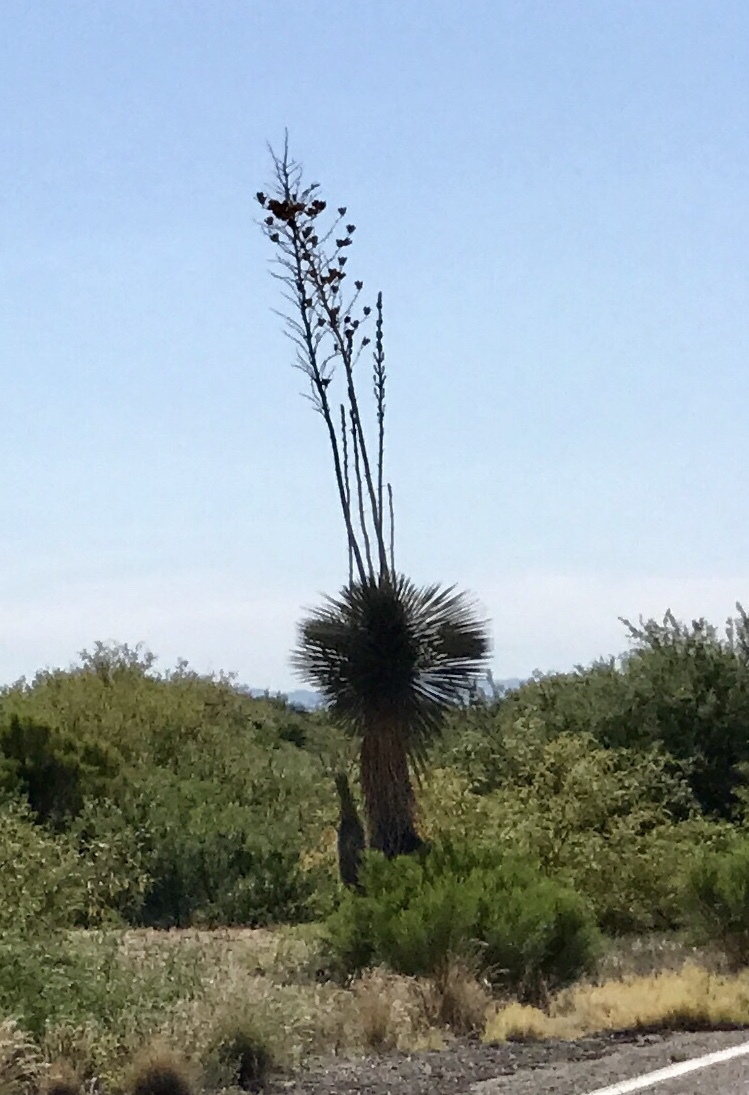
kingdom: Plantae
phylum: Tracheophyta
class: Liliopsida
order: Asparagales
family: Asparagaceae
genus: Yucca
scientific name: Yucca elata
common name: Palmella
